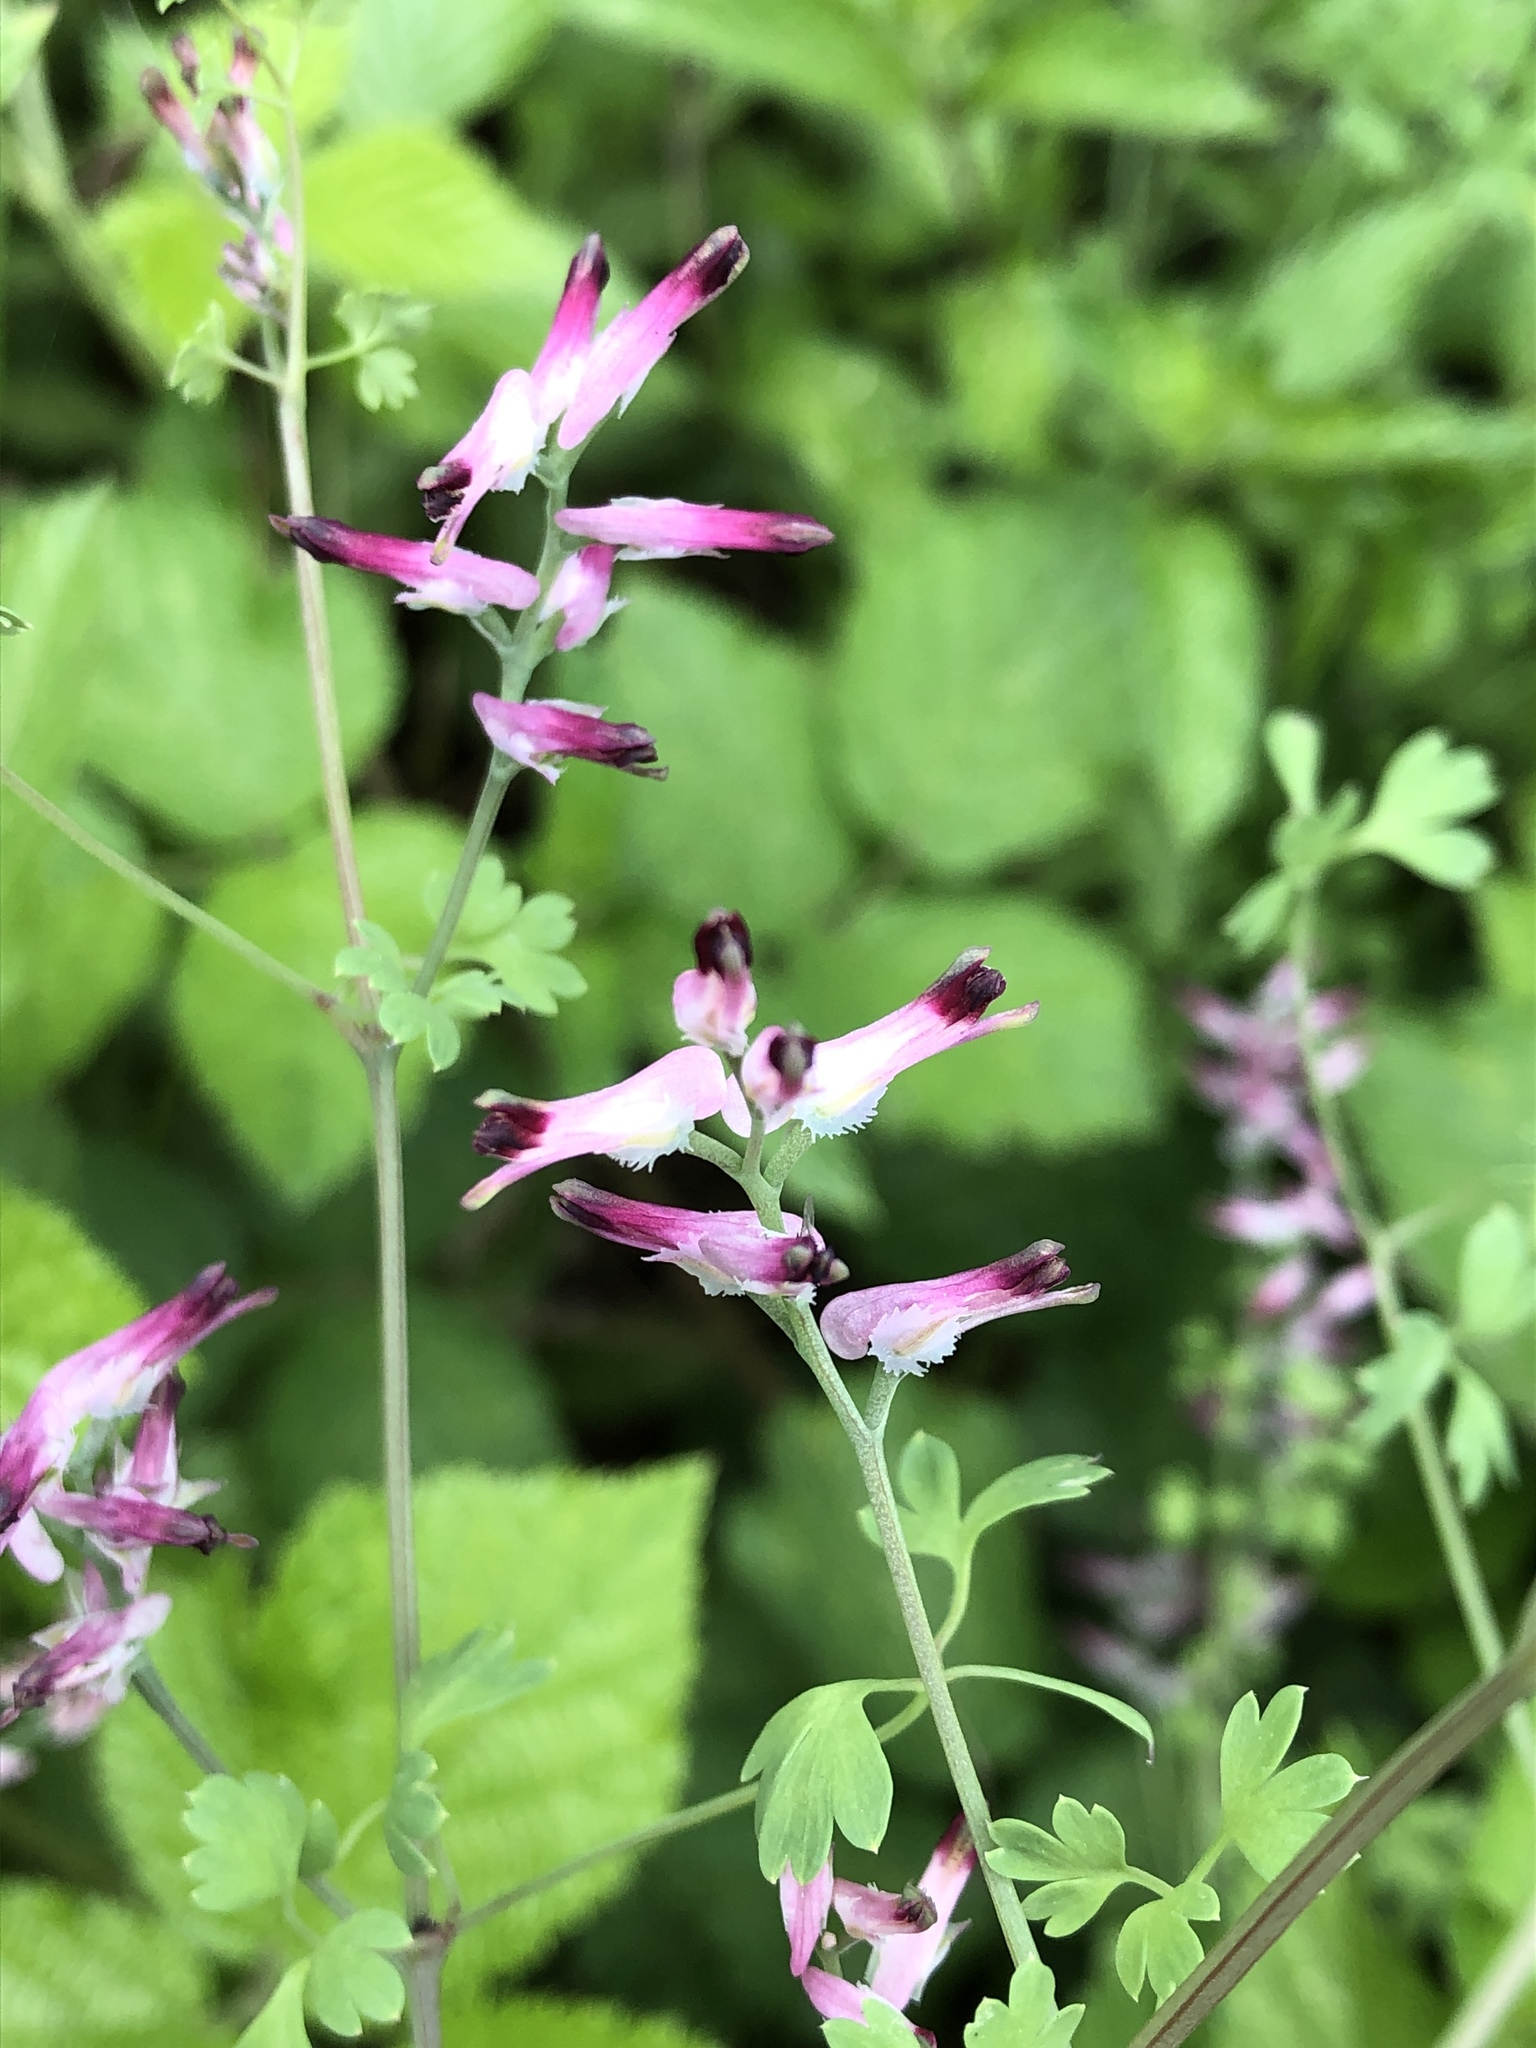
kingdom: Plantae
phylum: Tracheophyta
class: Magnoliopsida
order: Ranunculales
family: Papaveraceae
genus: Fumaria
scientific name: Fumaria officinalis
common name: Common fumitory
